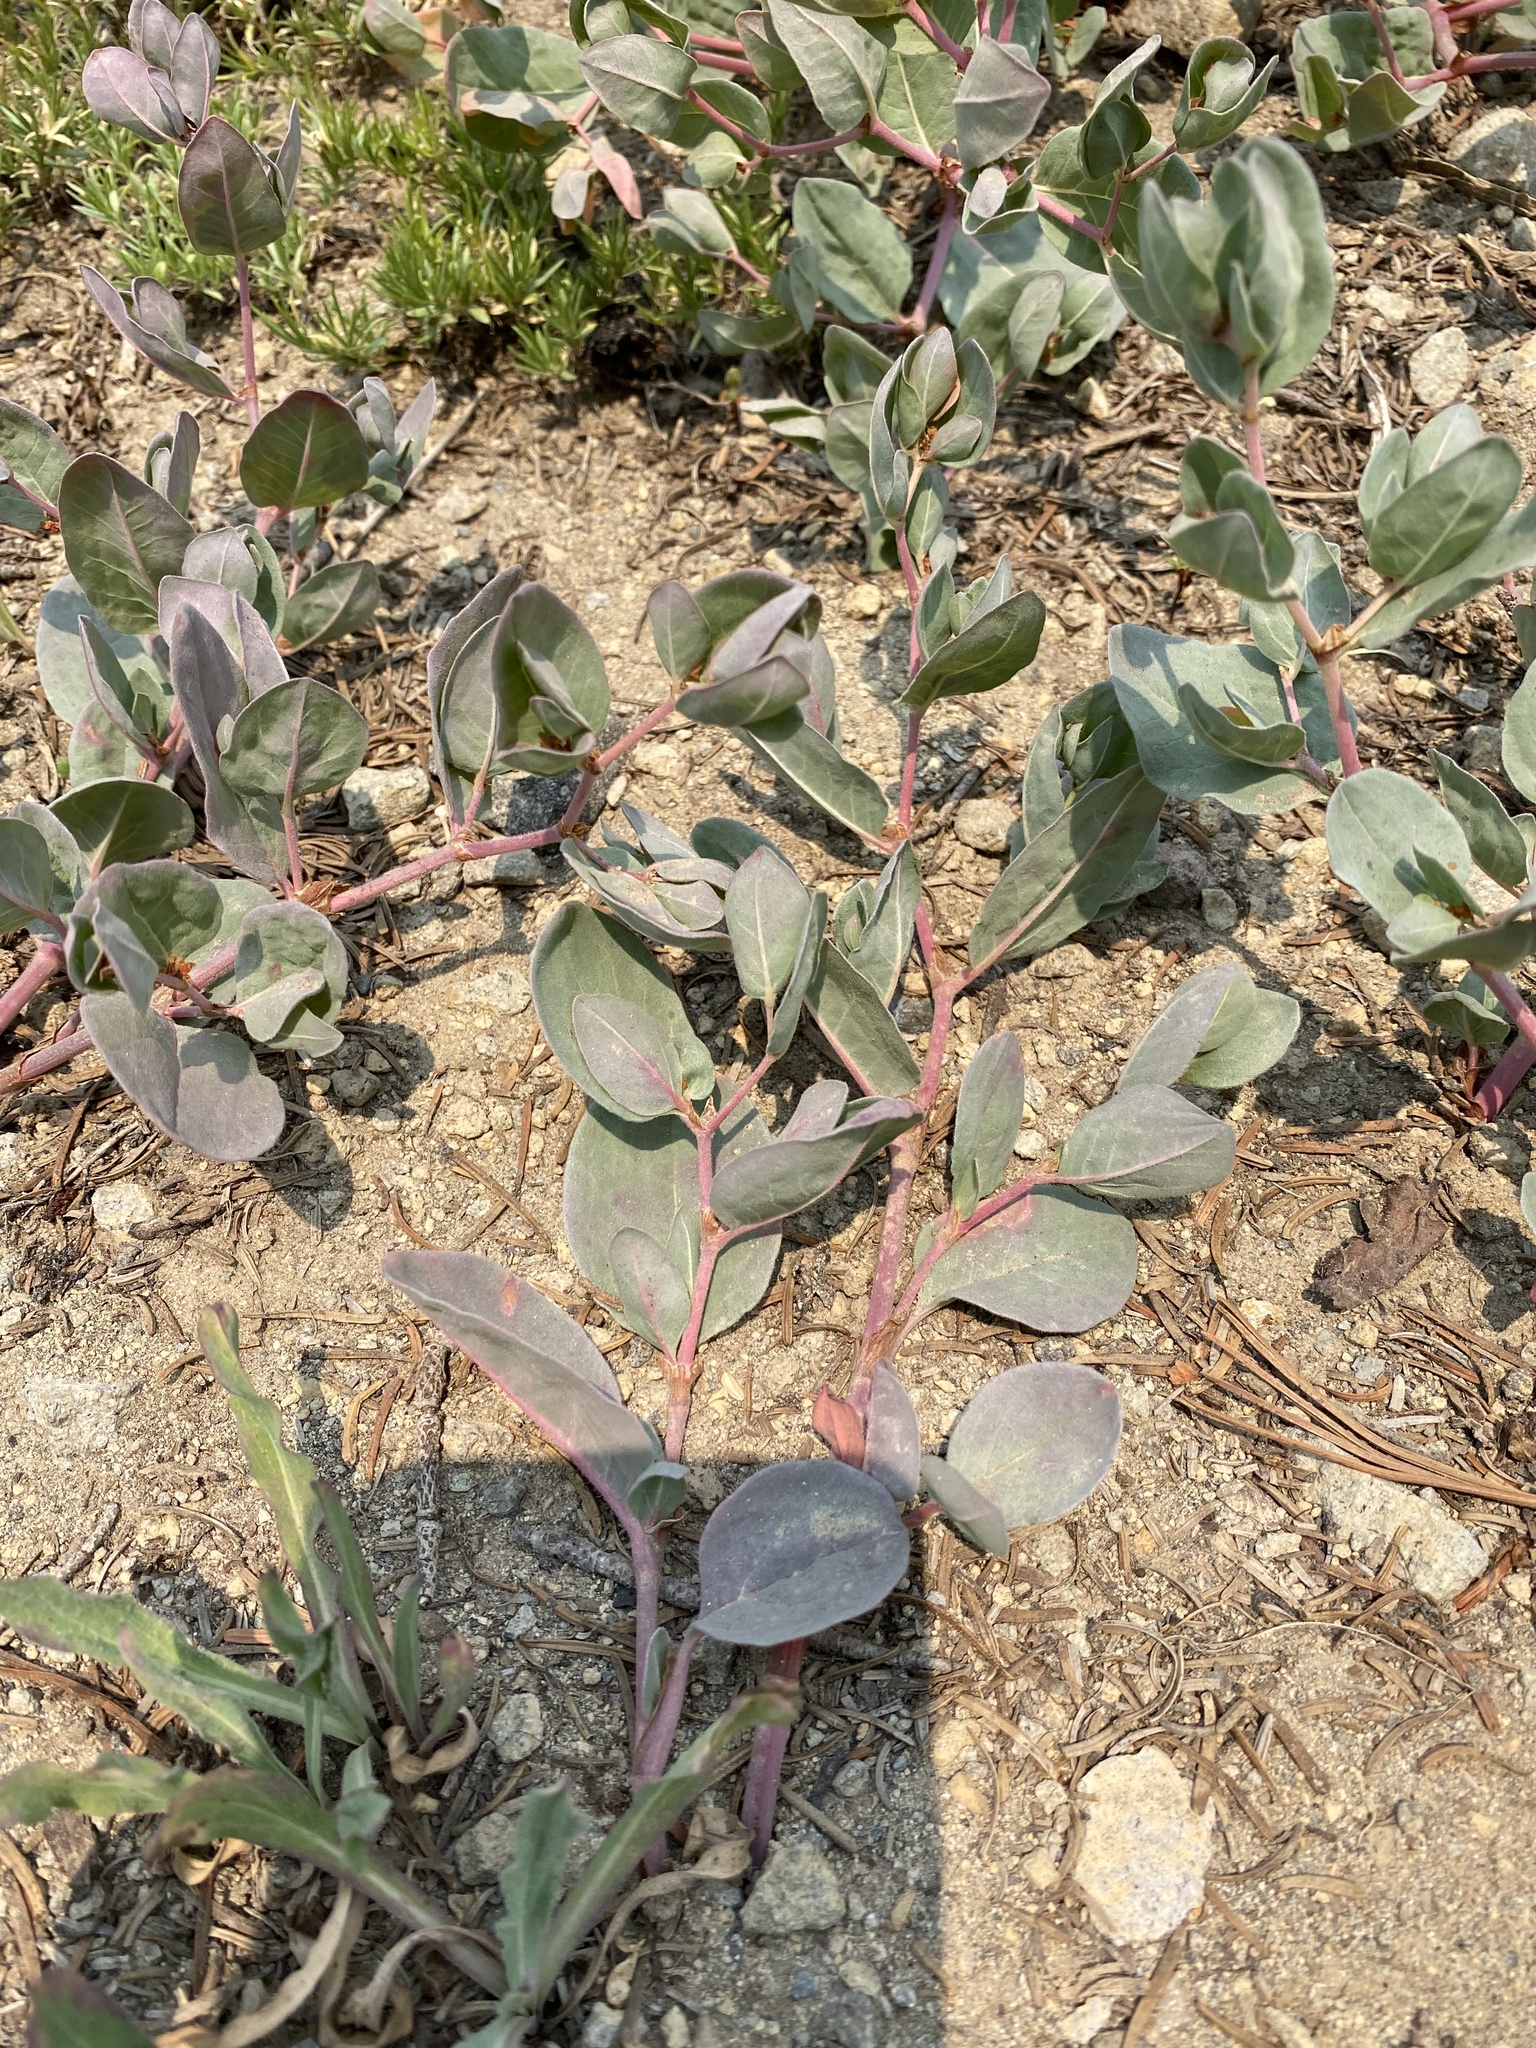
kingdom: Plantae
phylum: Tracheophyta
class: Magnoliopsida
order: Caryophyllales
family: Polygonaceae
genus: Koenigia
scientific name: Koenigia davisiae
